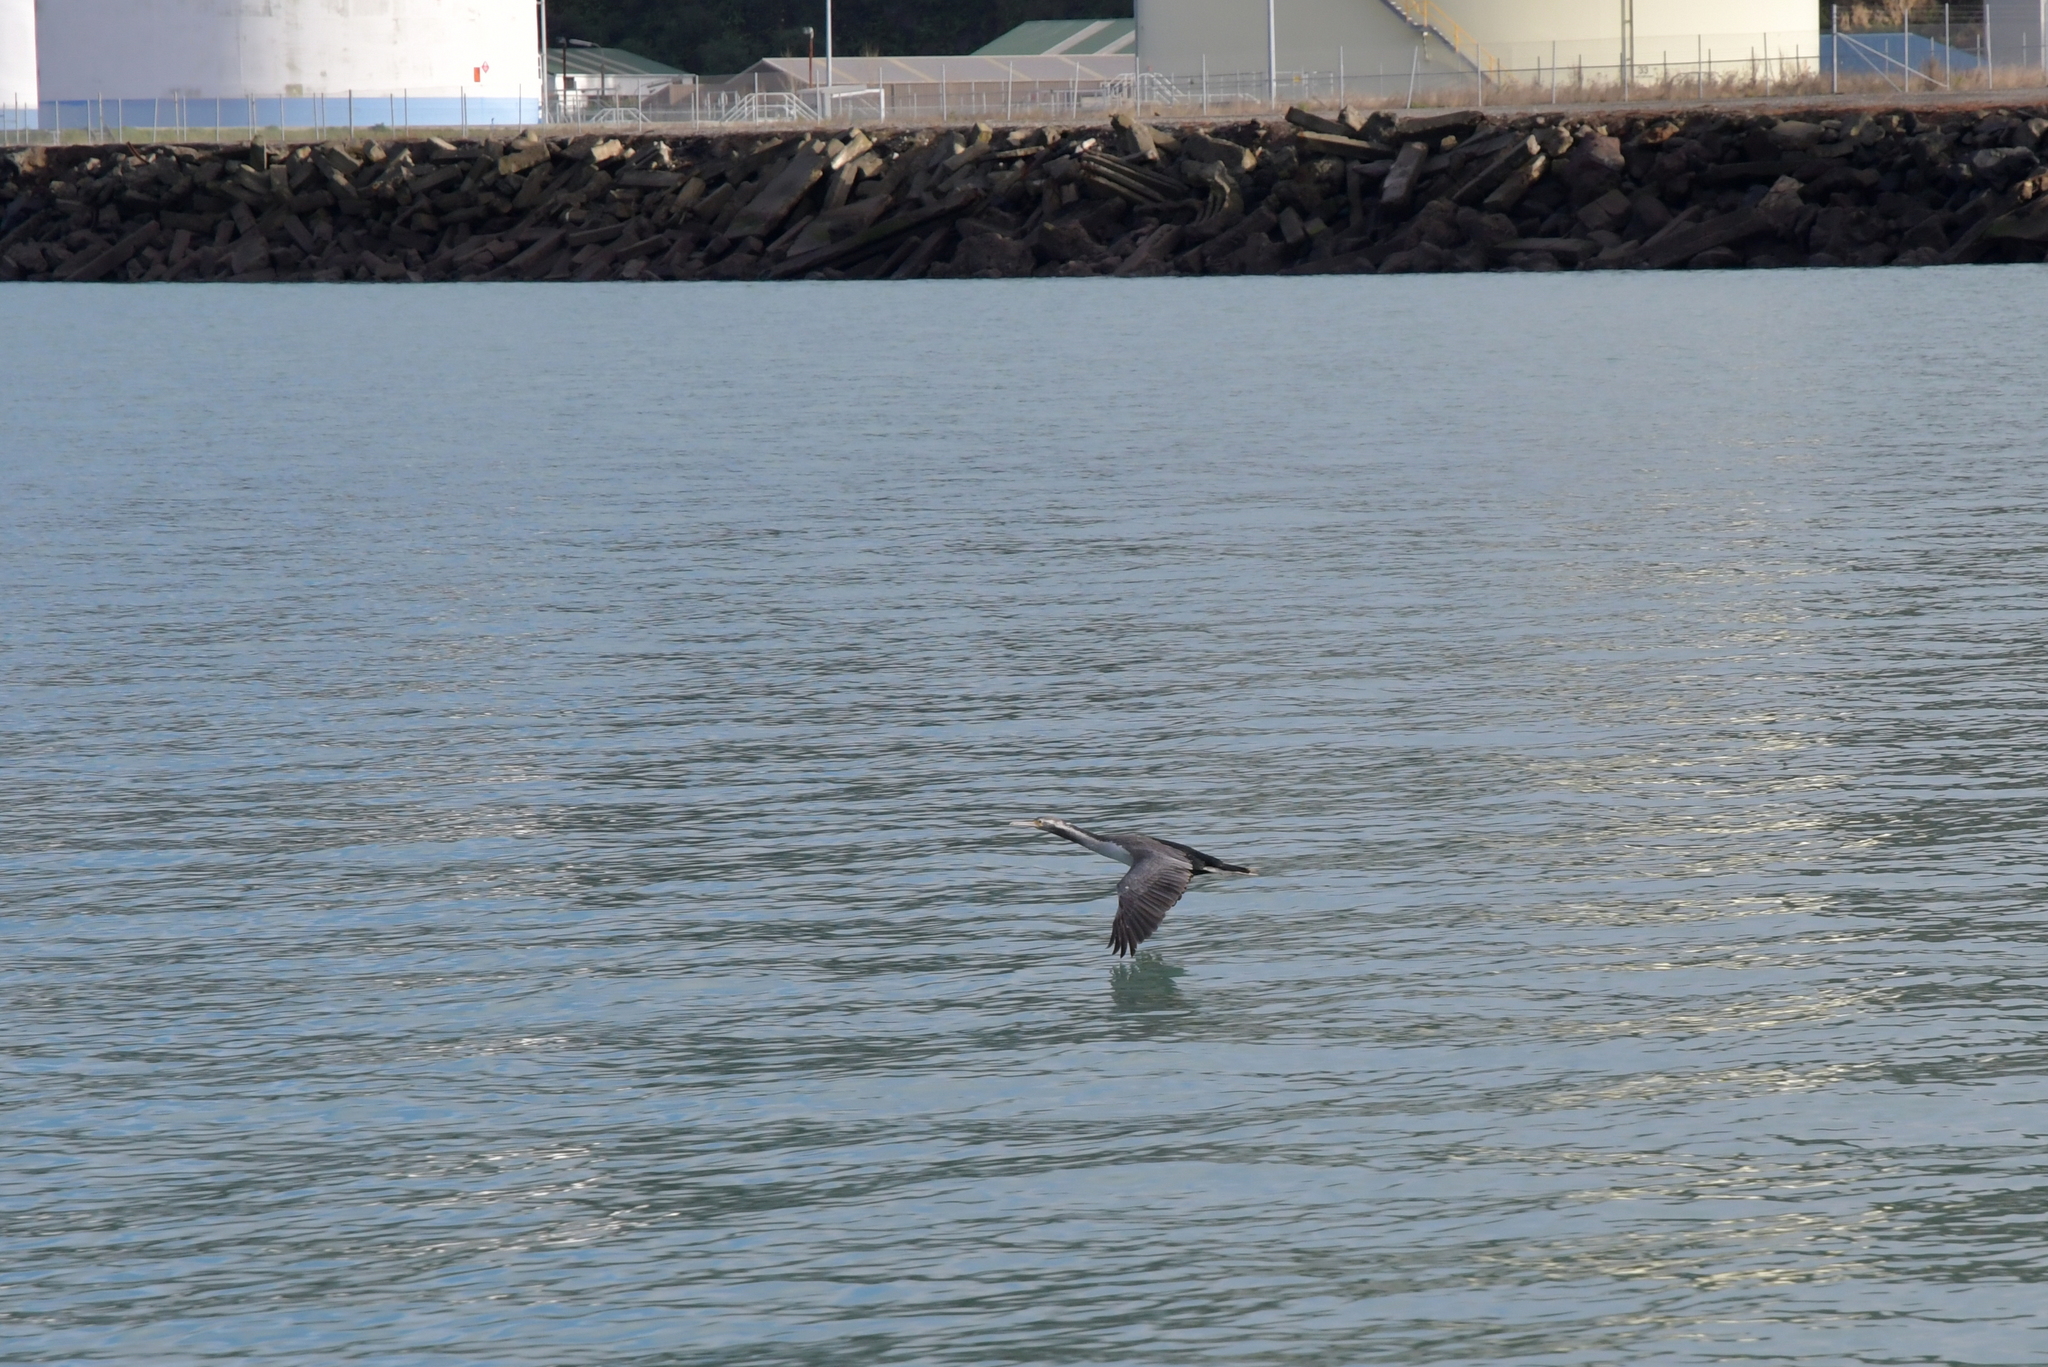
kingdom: Animalia
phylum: Chordata
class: Aves
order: Suliformes
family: Phalacrocoracidae
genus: Phalacrocorax
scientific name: Phalacrocorax punctatus
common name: Spotted shag
